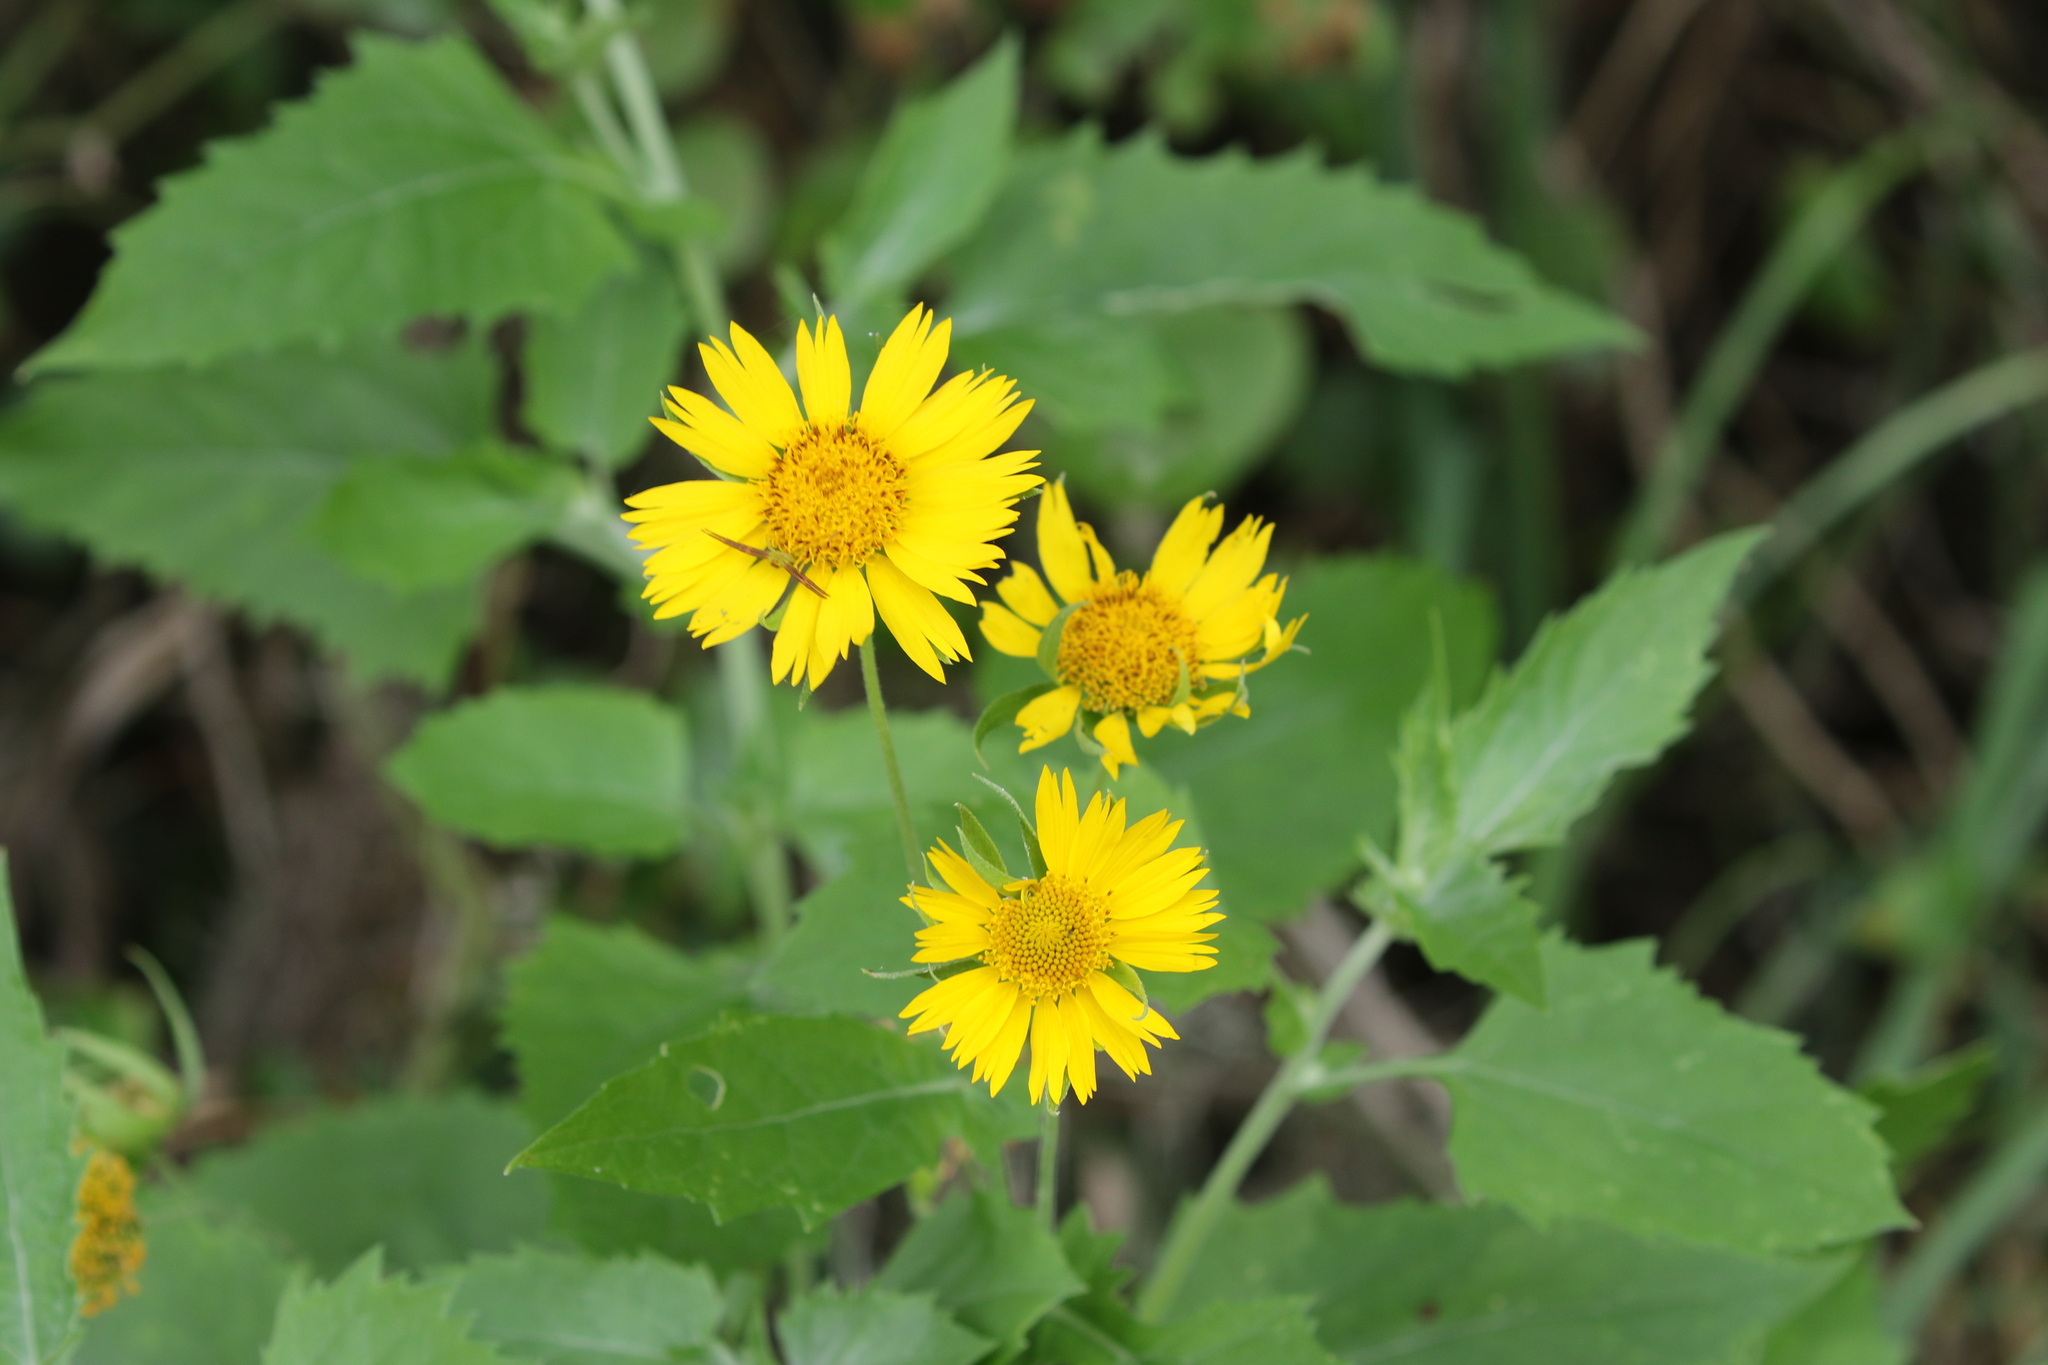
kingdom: Plantae
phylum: Tracheophyta
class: Magnoliopsida
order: Asterales
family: Asteraceae
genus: Verbesina
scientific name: Verbesina encelioides
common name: Golden crownbeard
